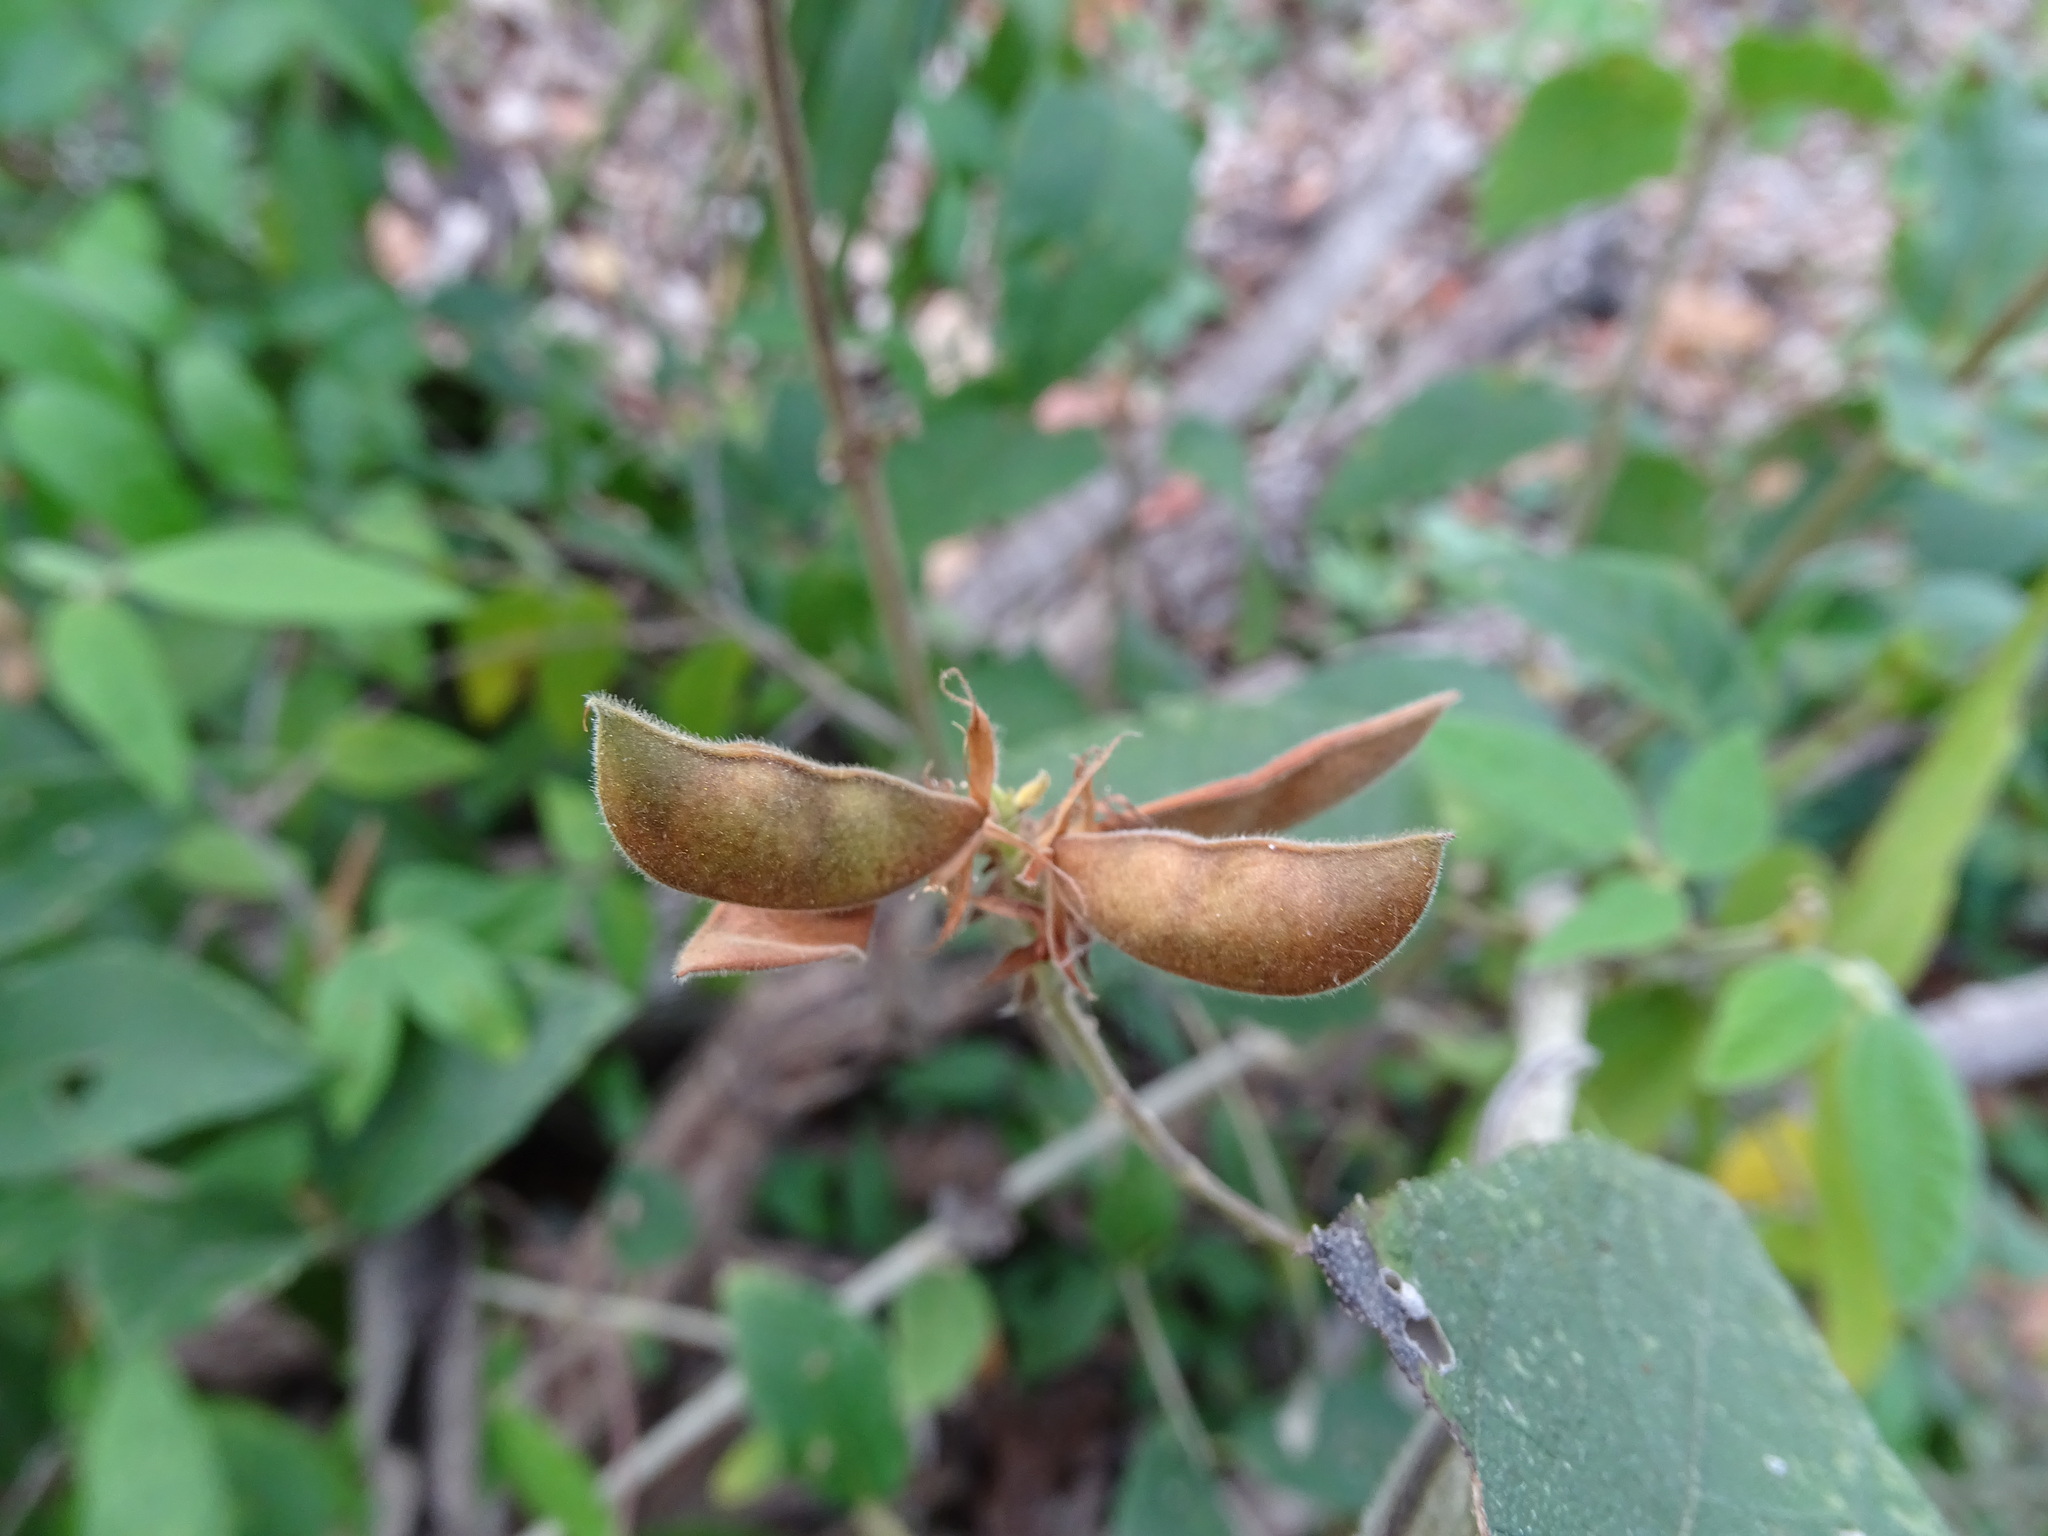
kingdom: Plantae
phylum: Tracheophyta
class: Magnoliopsida
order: Fabales
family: Fabaceae
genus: Rhynchosia
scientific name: Rhynchosia reticulata
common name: Pea withe
